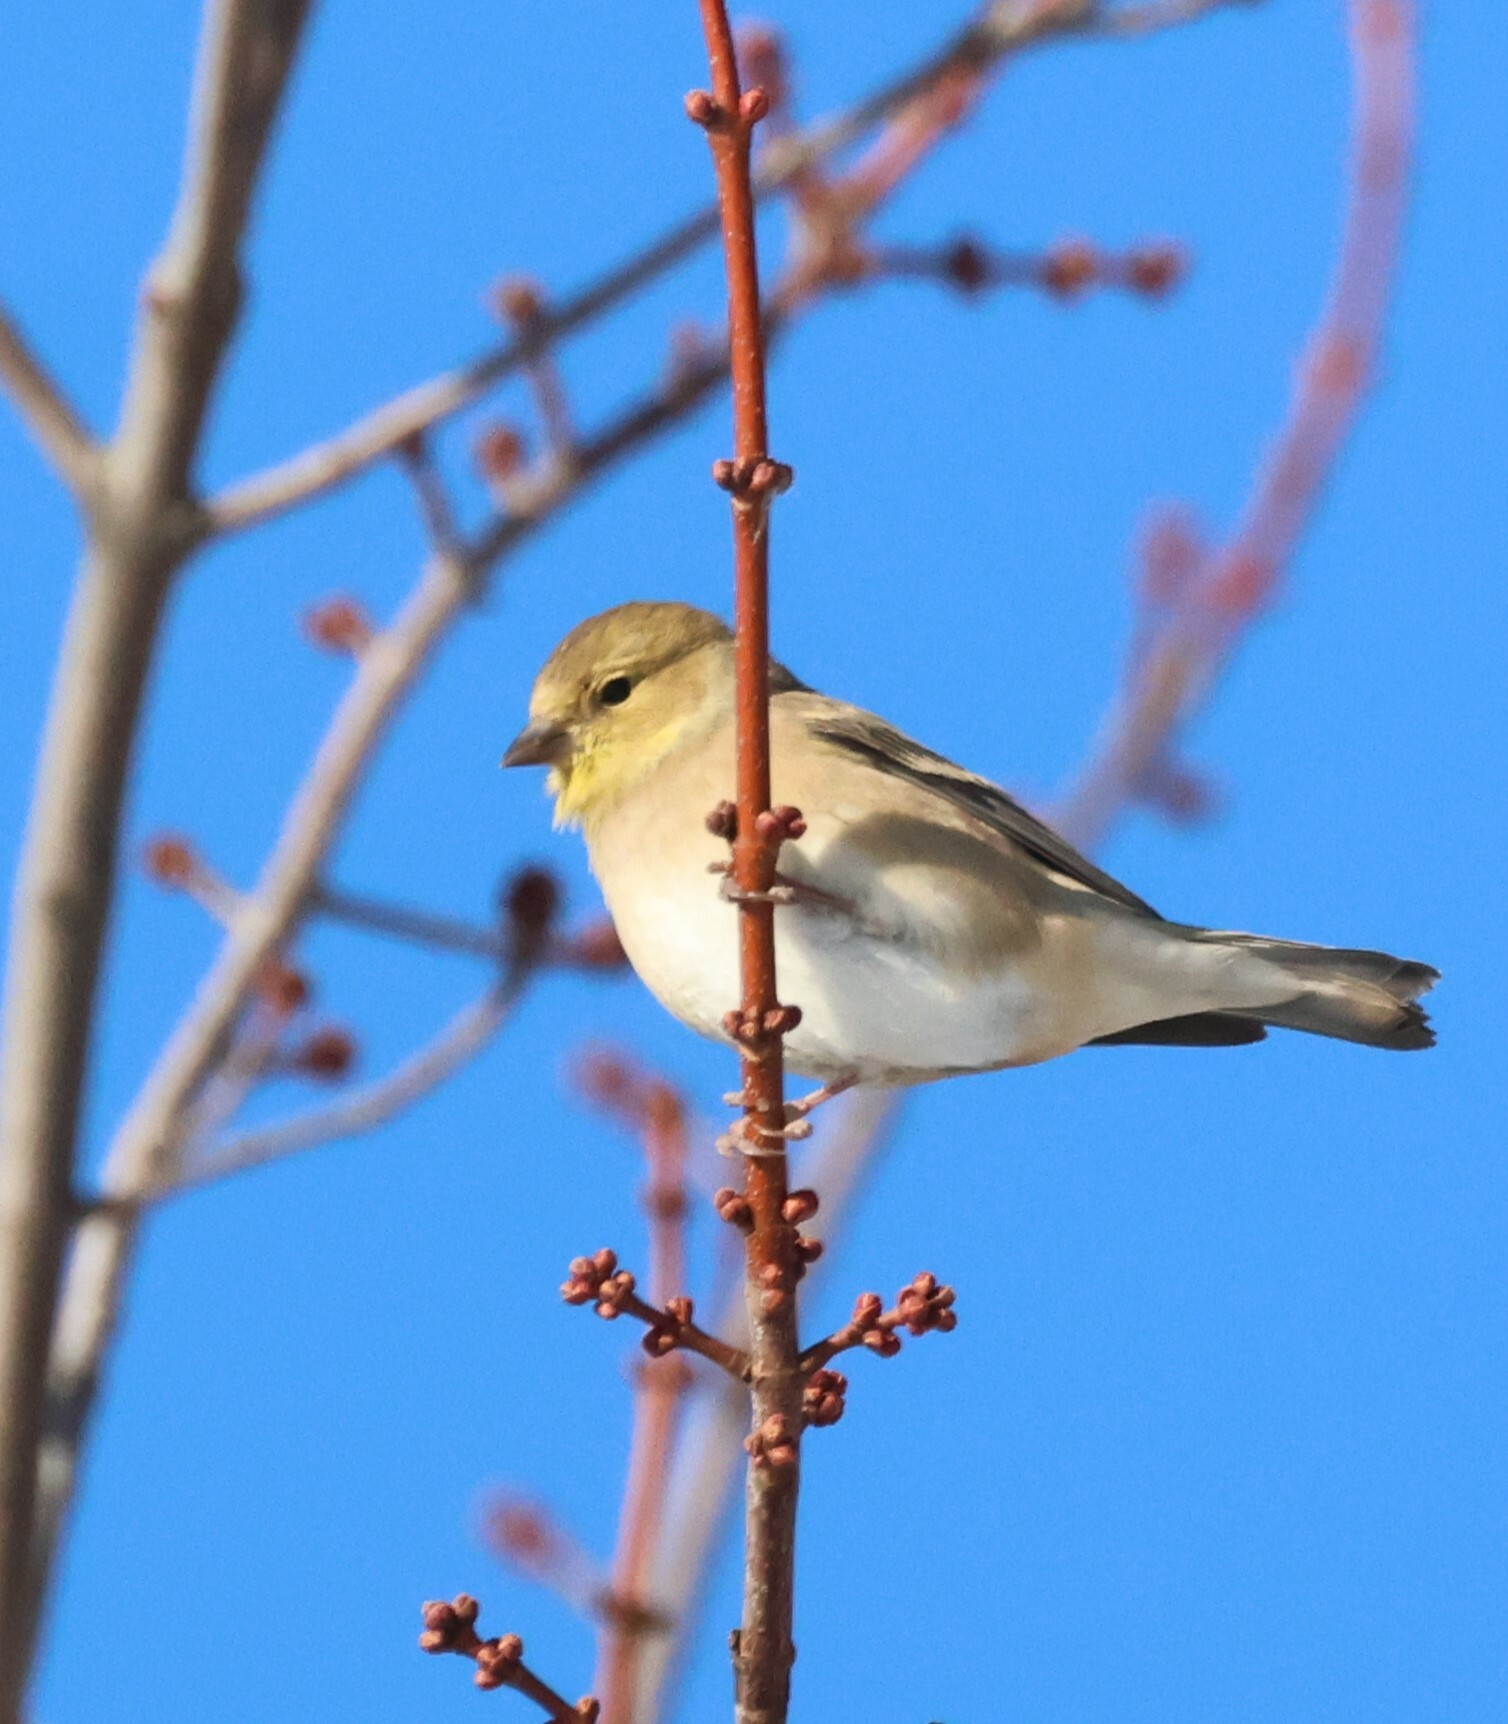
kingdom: Animalia
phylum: Chordata
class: Aves
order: Passeriformes
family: Fringillidae
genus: Spinus
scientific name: Spinus tristis
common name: American goldfinch
